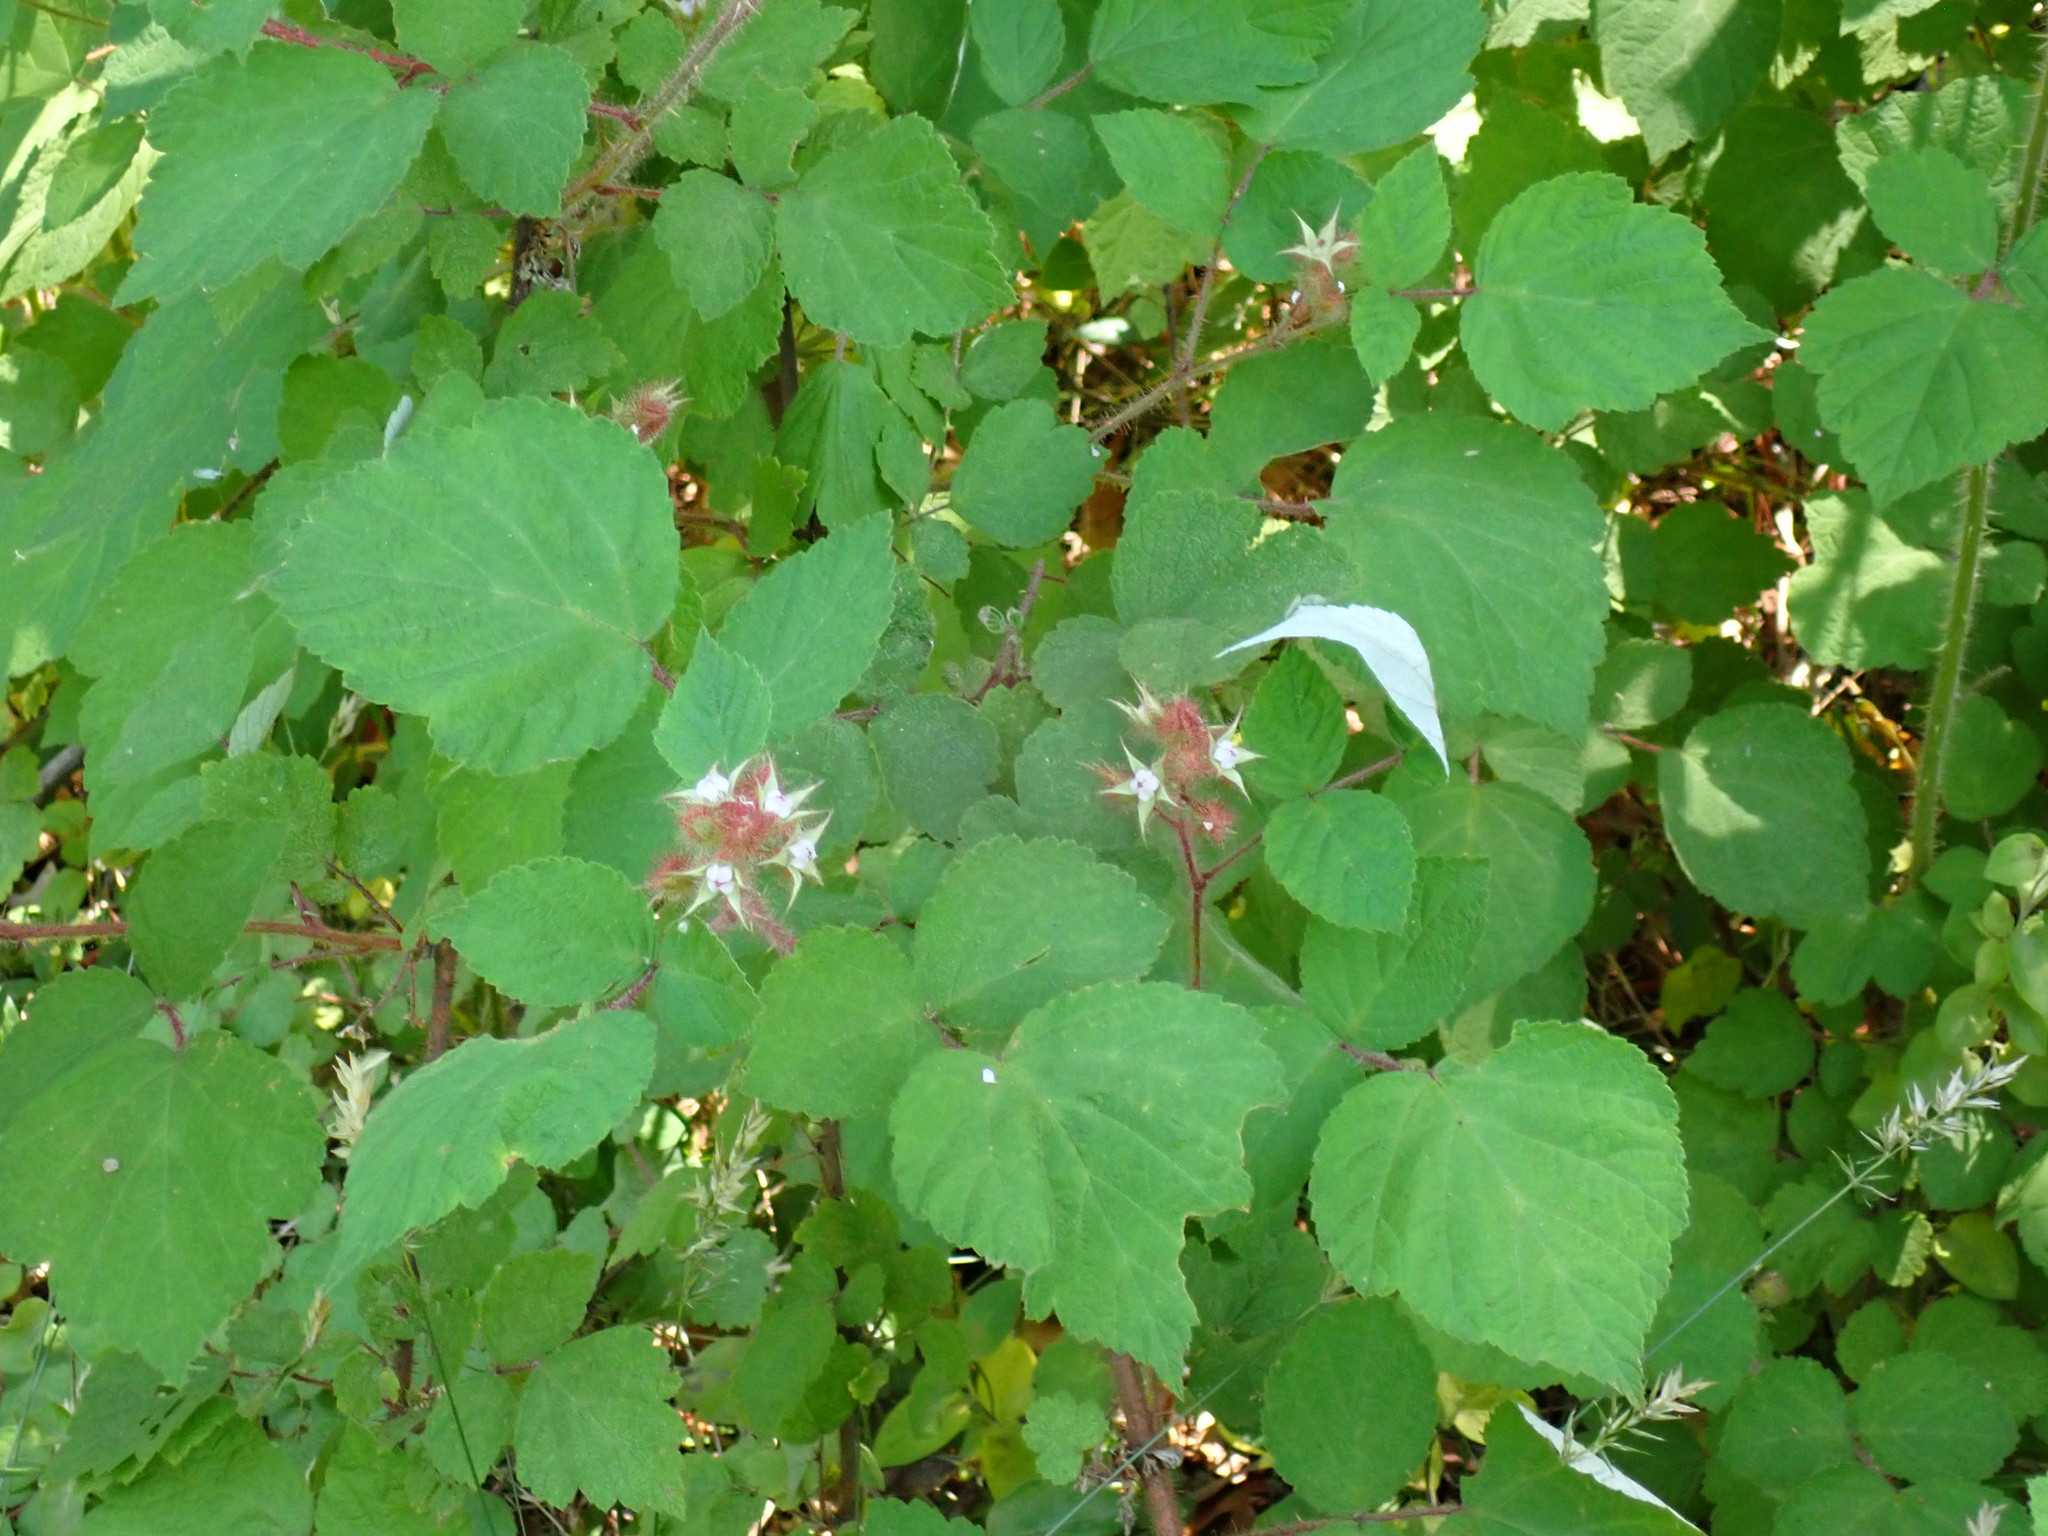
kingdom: Plantae
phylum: Tracheophyta
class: Magnoliopsida
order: Rosales
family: Rosaceae
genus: Rubus
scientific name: Rubus phoenicolasius
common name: Japanese wineberry
